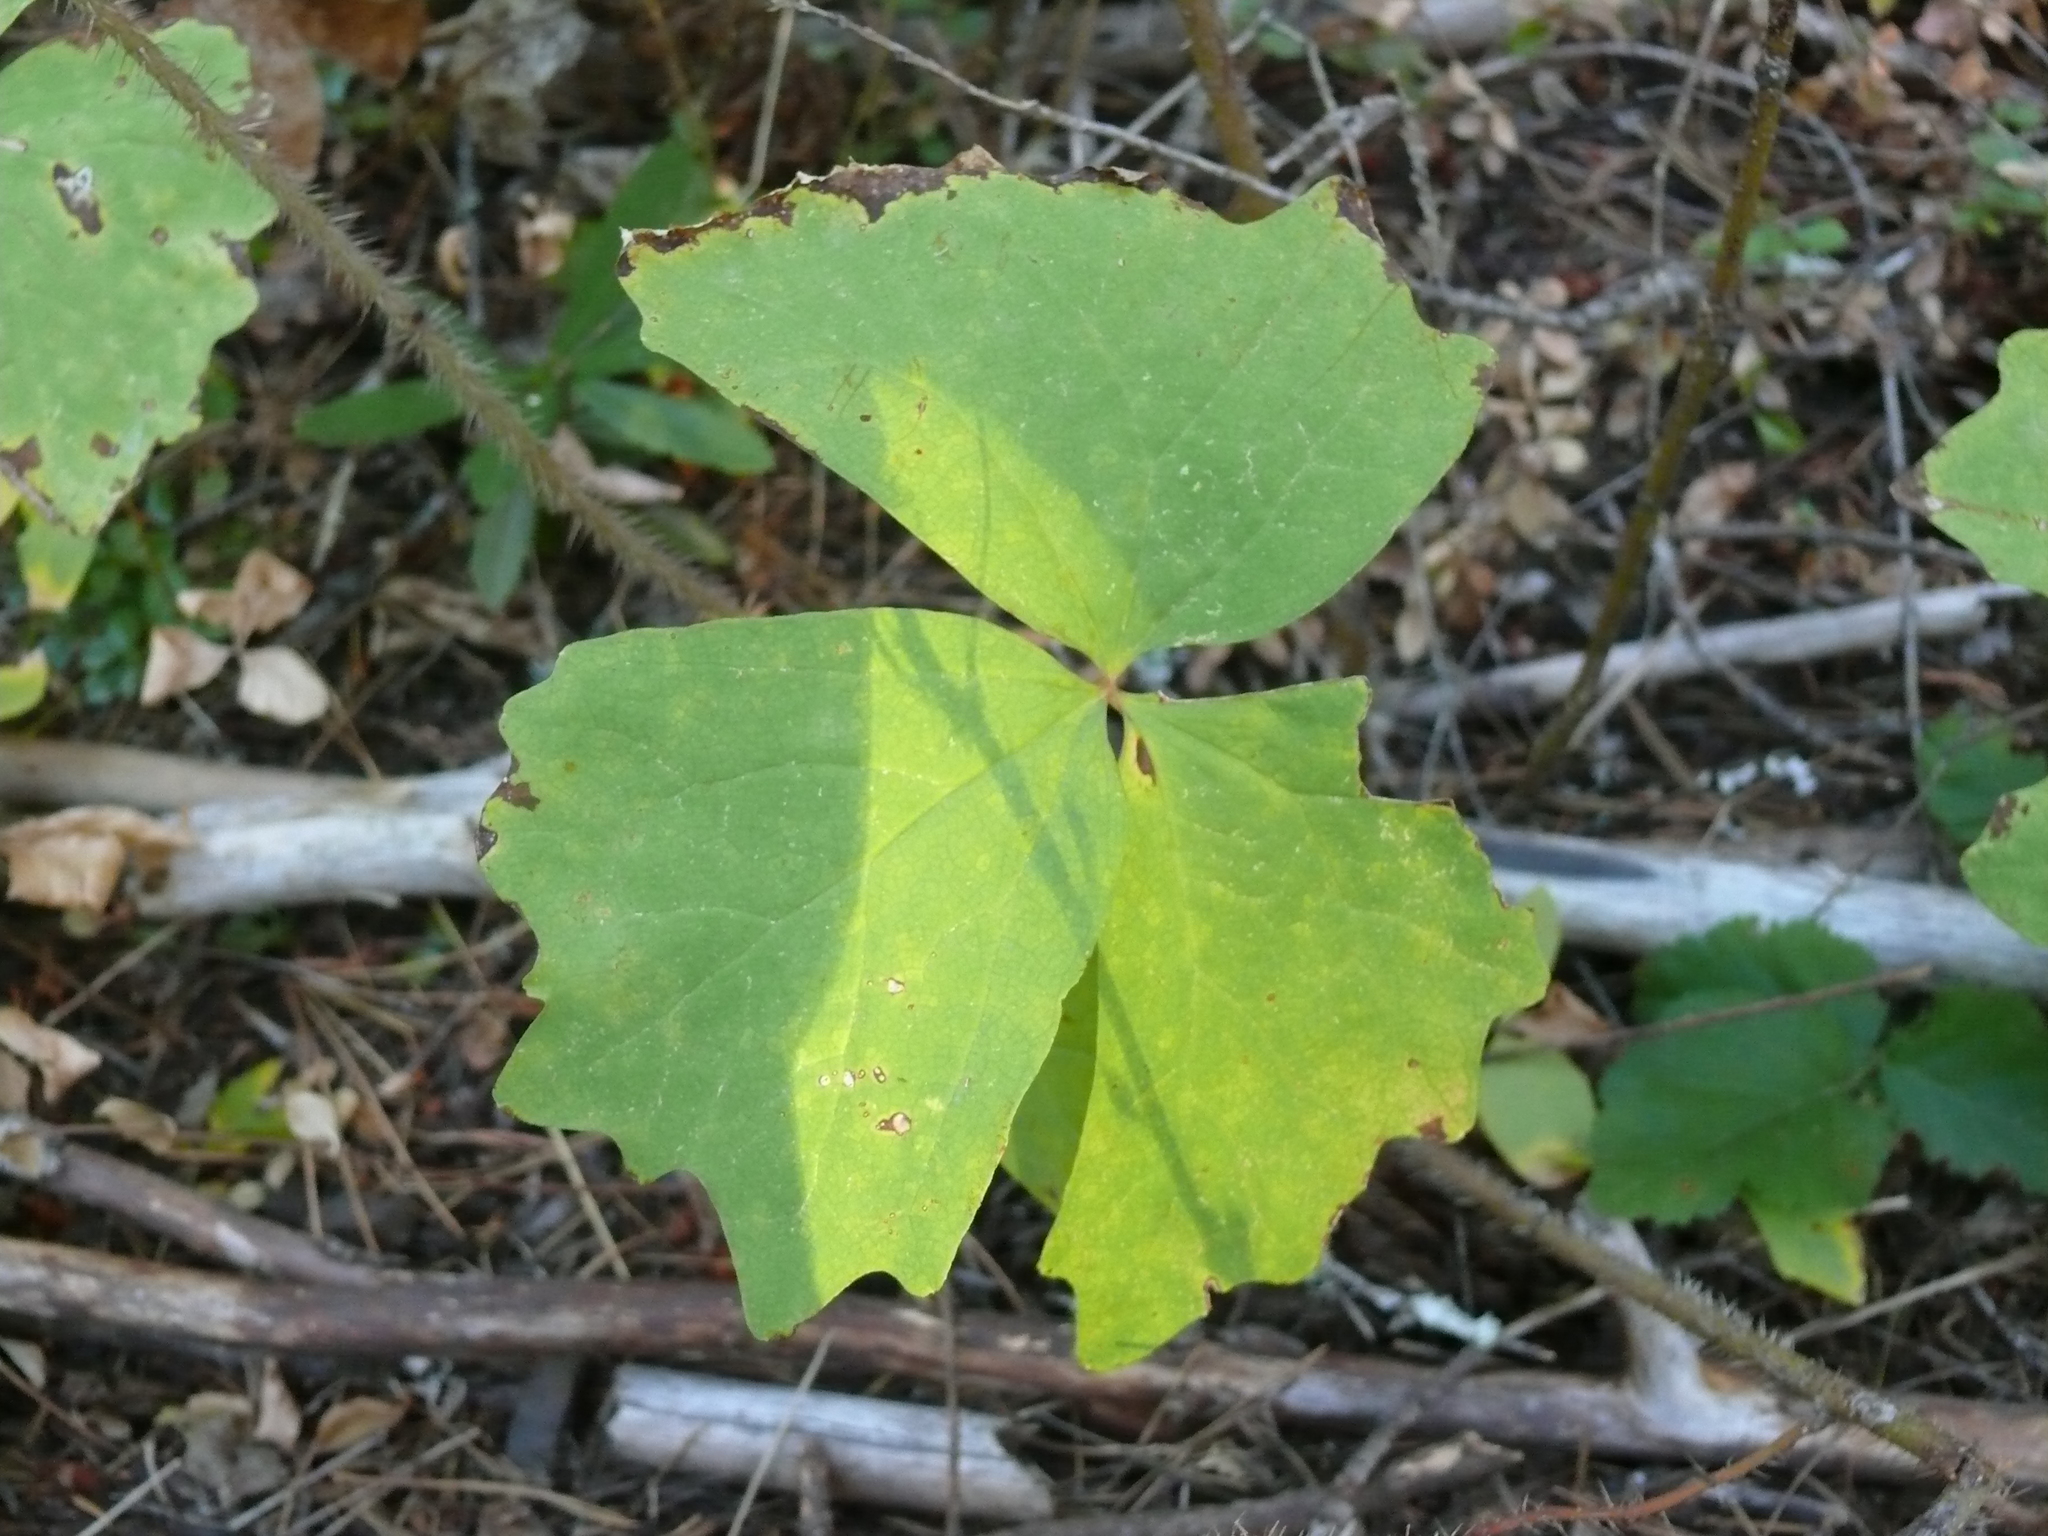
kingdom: Plantae
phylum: Tracheophyta
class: Magnoliopsida
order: Ranunculales
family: Berberidaceae
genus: Achlys
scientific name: Achlys triphylla
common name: Vanilla-leaf
